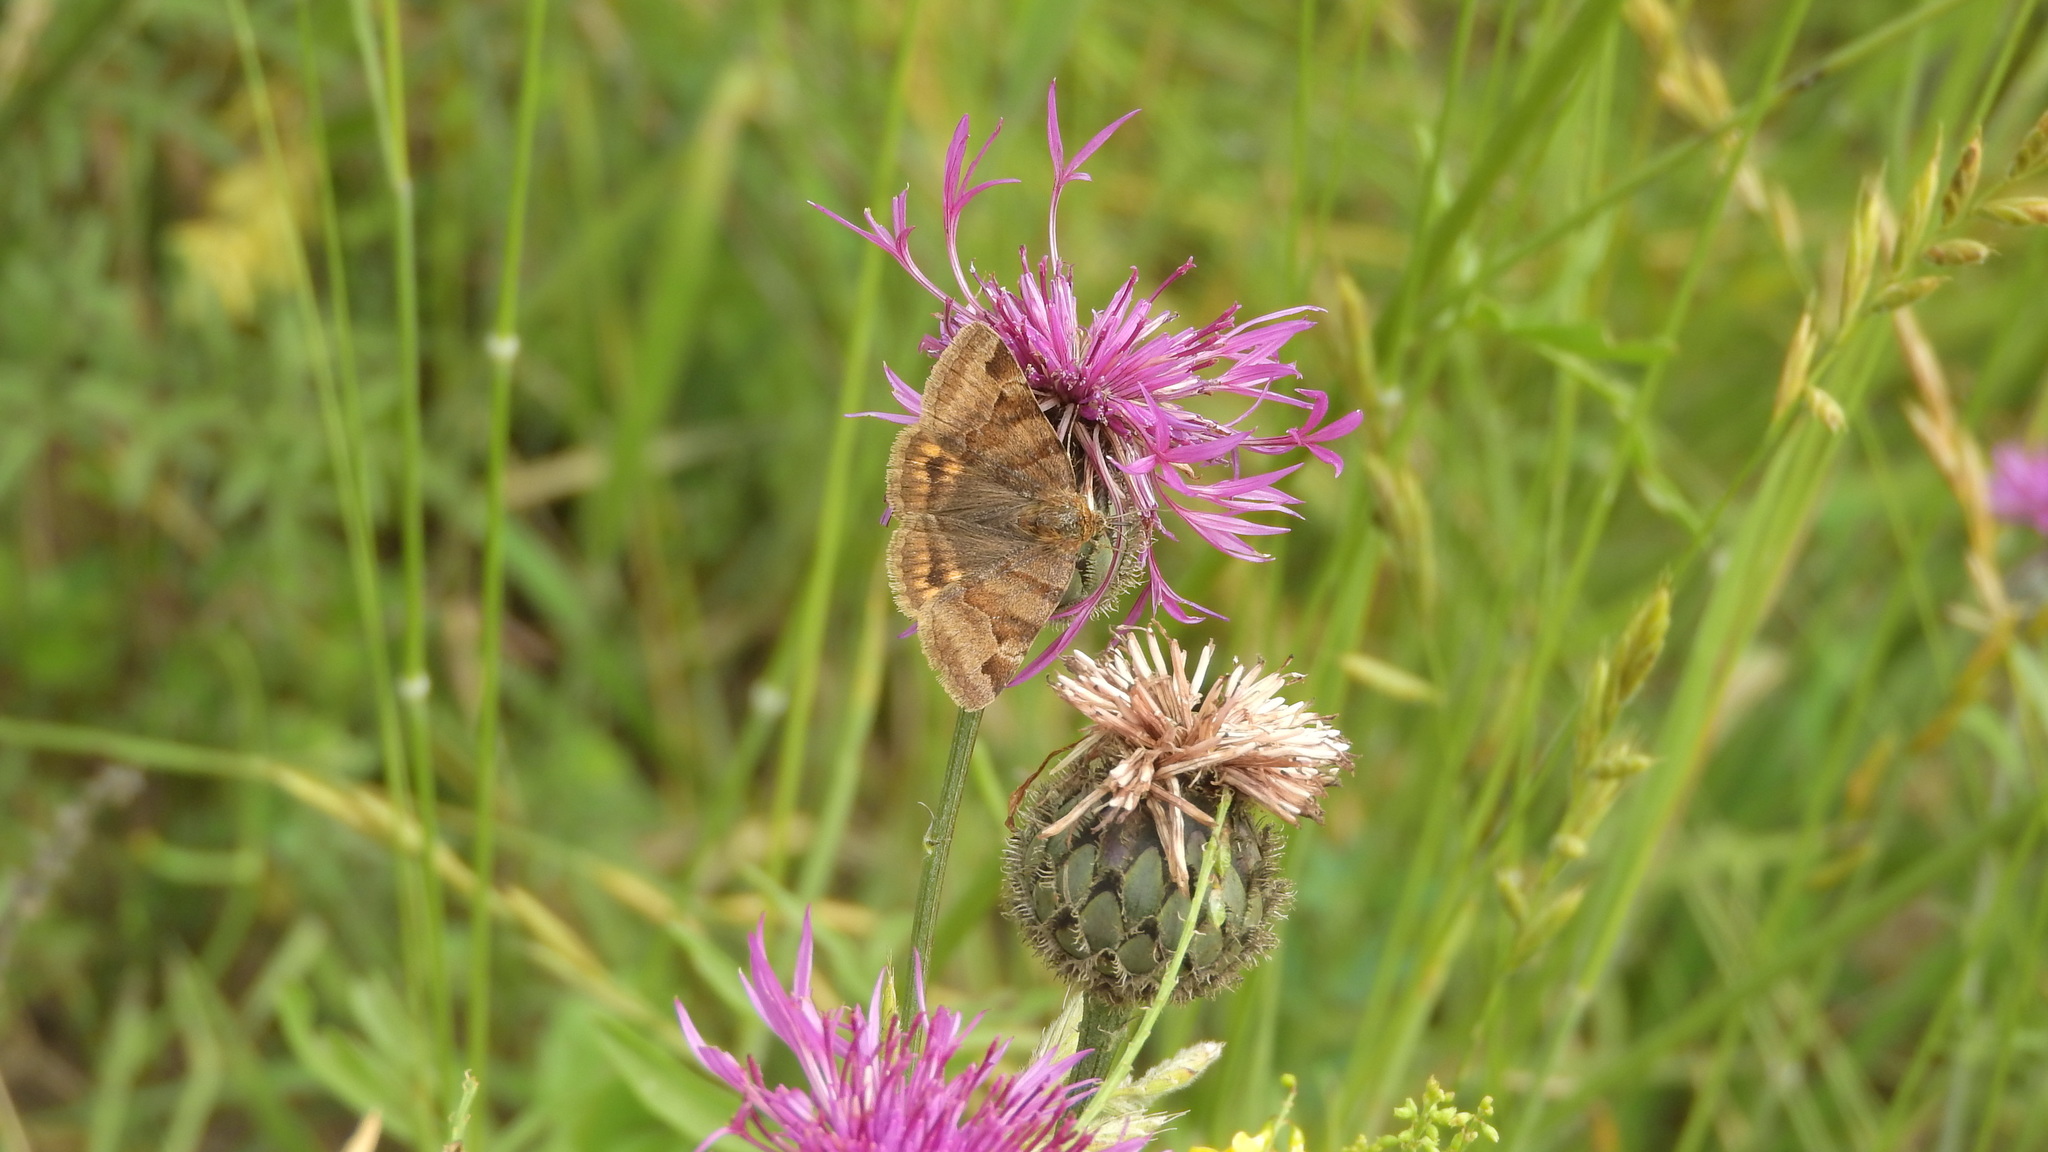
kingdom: Animalia
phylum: Arthropoda
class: Insecta
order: Lepidoptera
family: Erebidae
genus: Euclidia
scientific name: Euclidia glyphica
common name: Burnet companion
